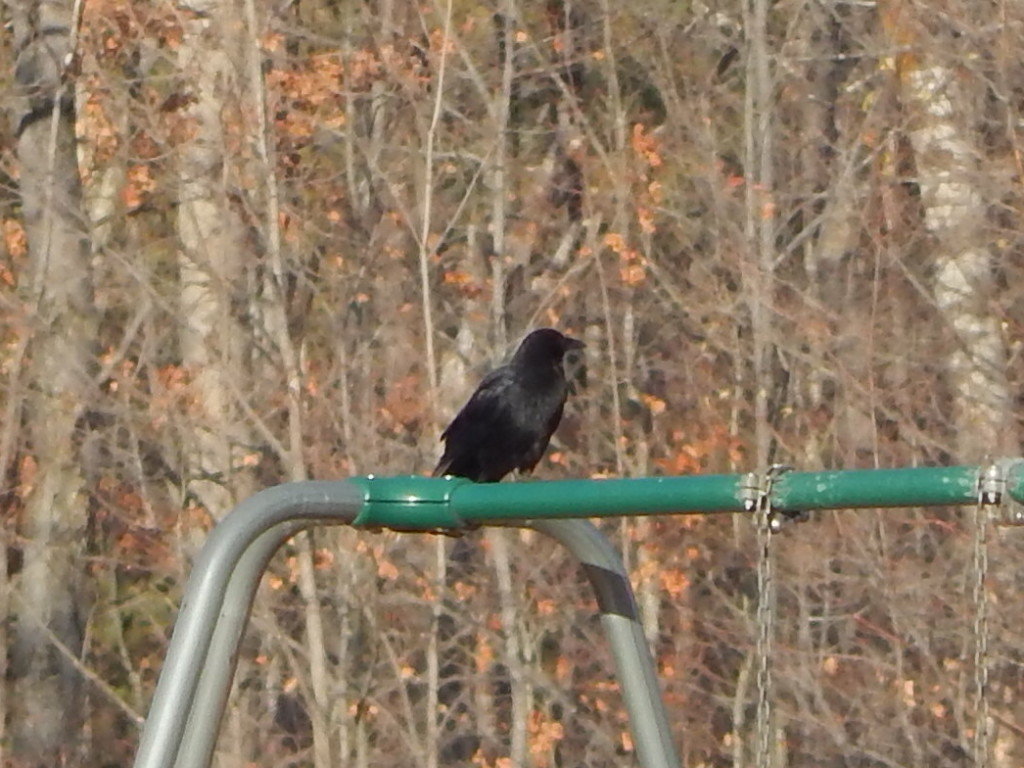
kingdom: Animalia
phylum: Chordata
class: Aves
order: Passeriformes
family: Corvidae
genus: Corvus
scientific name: Corvus brachyrhynchos
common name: American crow
